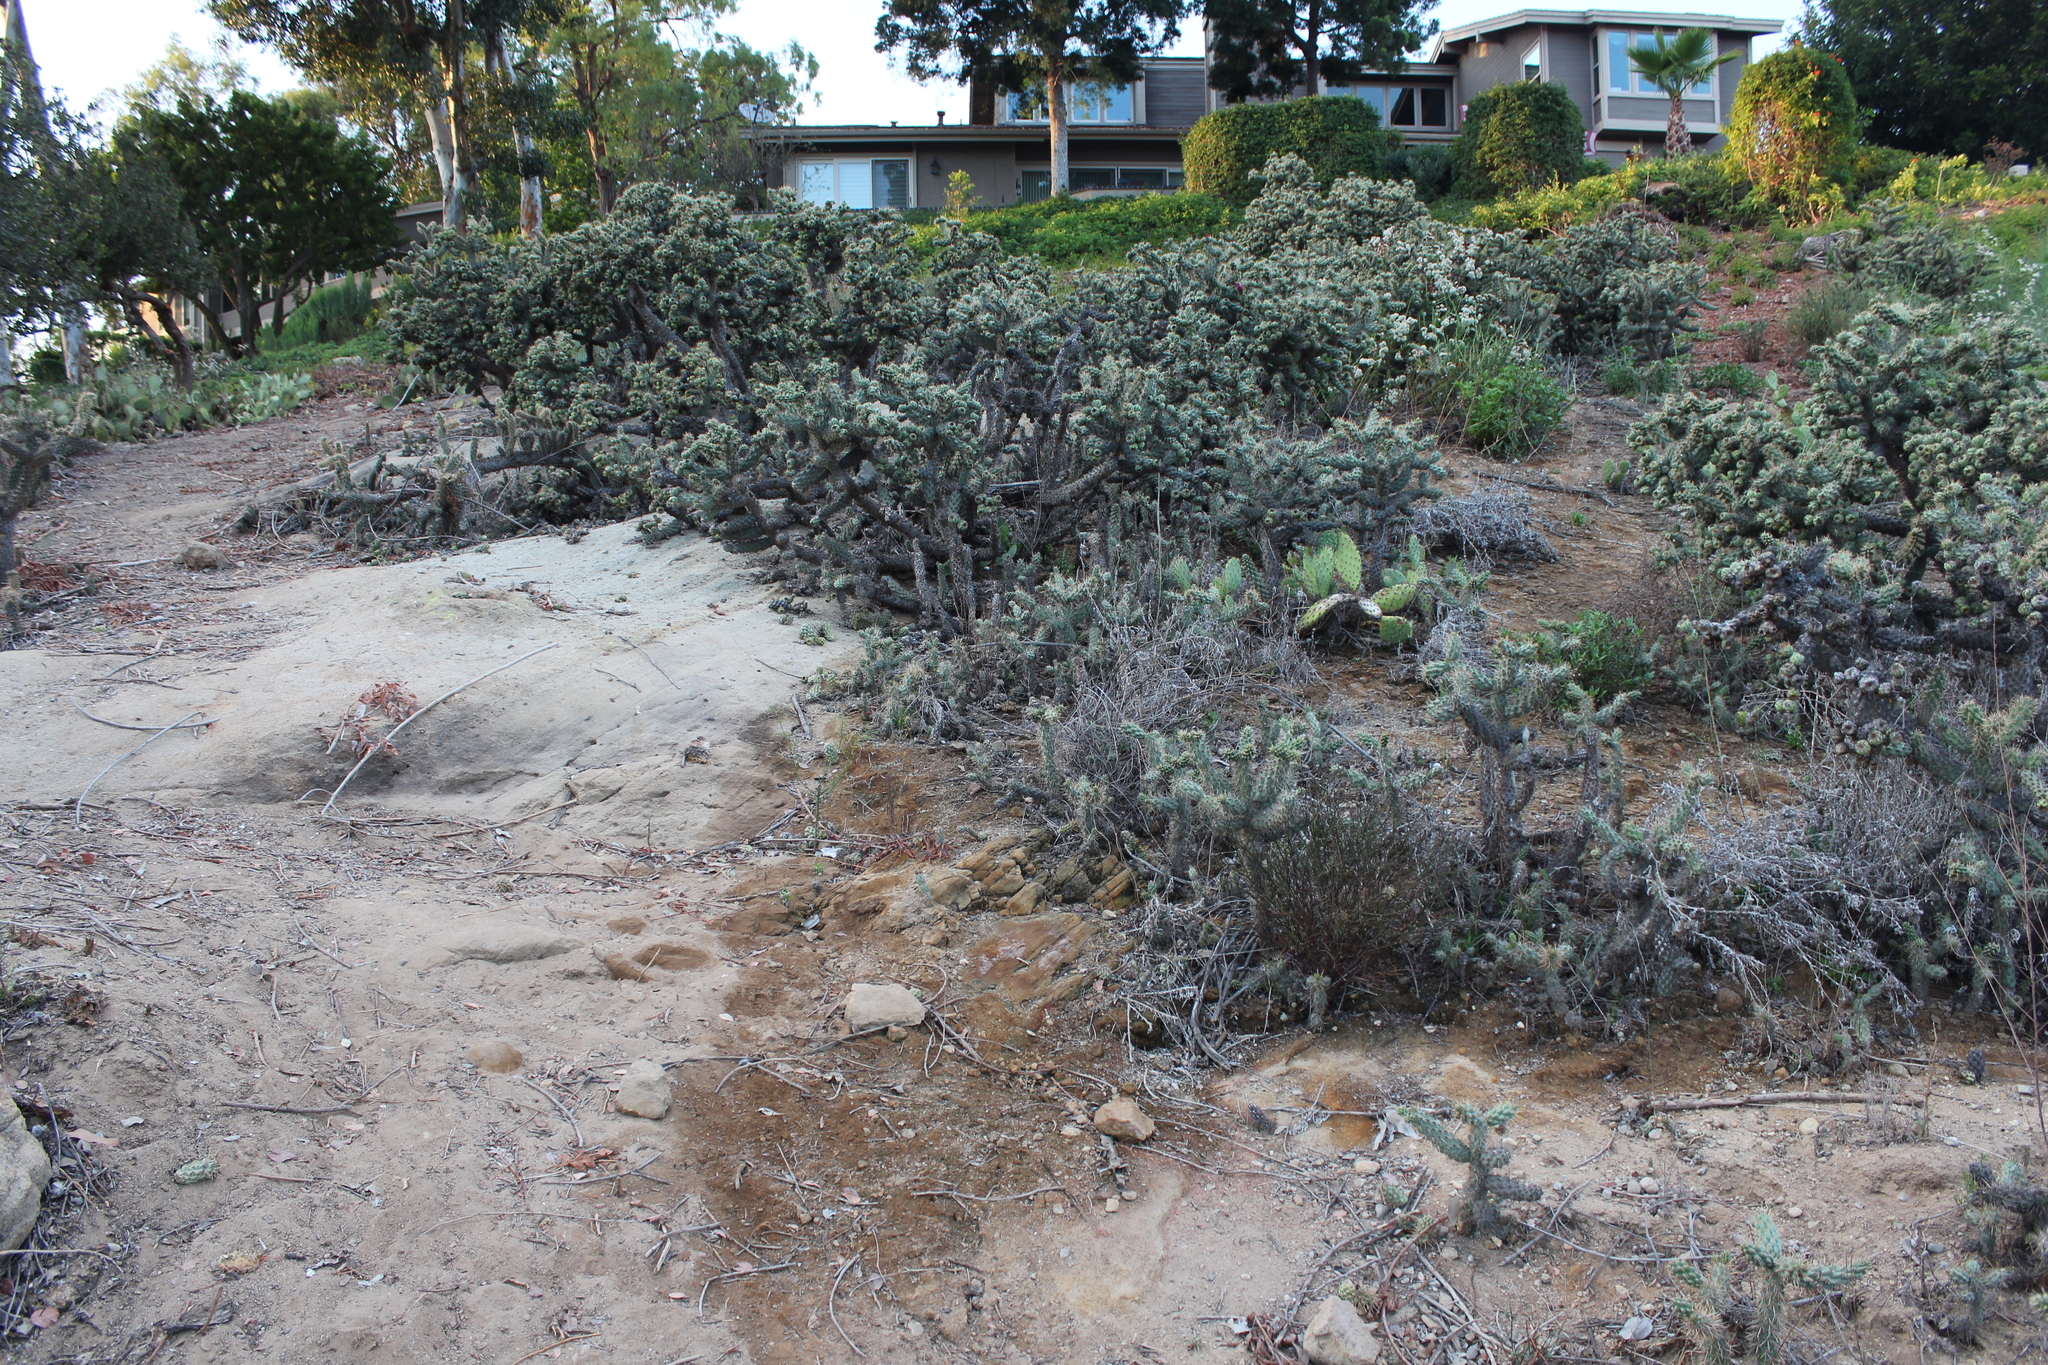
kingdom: Plantae
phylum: Tracheophyta
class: Magnoliopsida
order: Caryophyllales
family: Cactaceae
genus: Cylindropuntia
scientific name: Cylindropuntia prolifera
